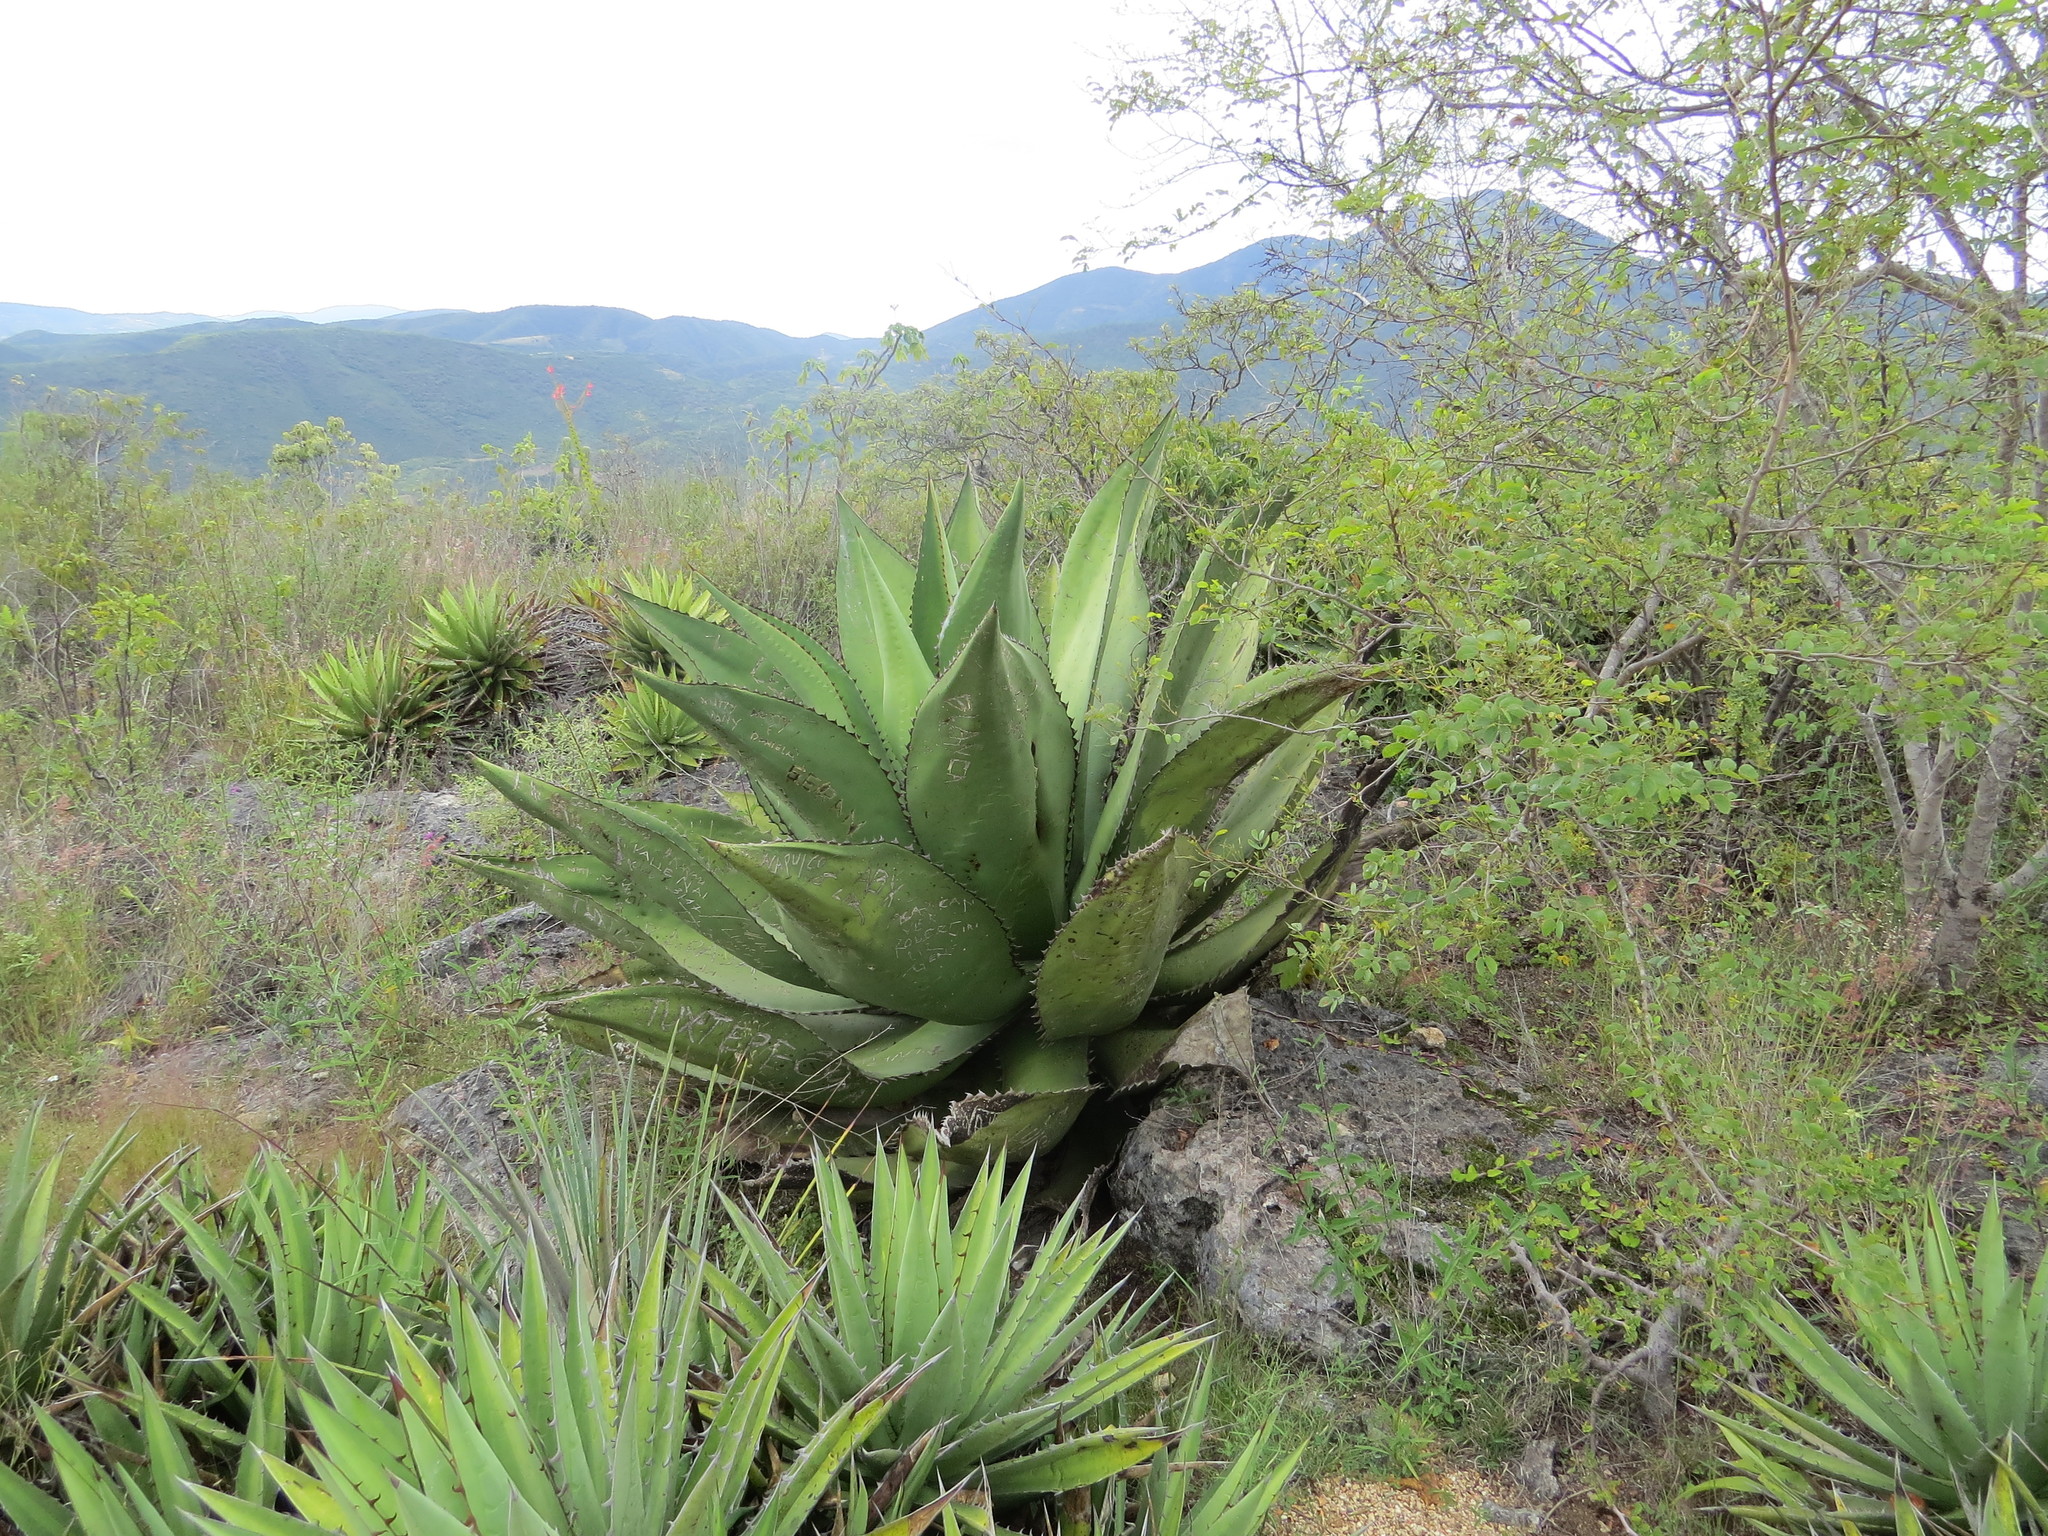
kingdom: Plantae
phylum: Tracheophyta
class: Liliopsida
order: Asparagales
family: Asparagaceae
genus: Agave
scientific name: Agave marmorata
